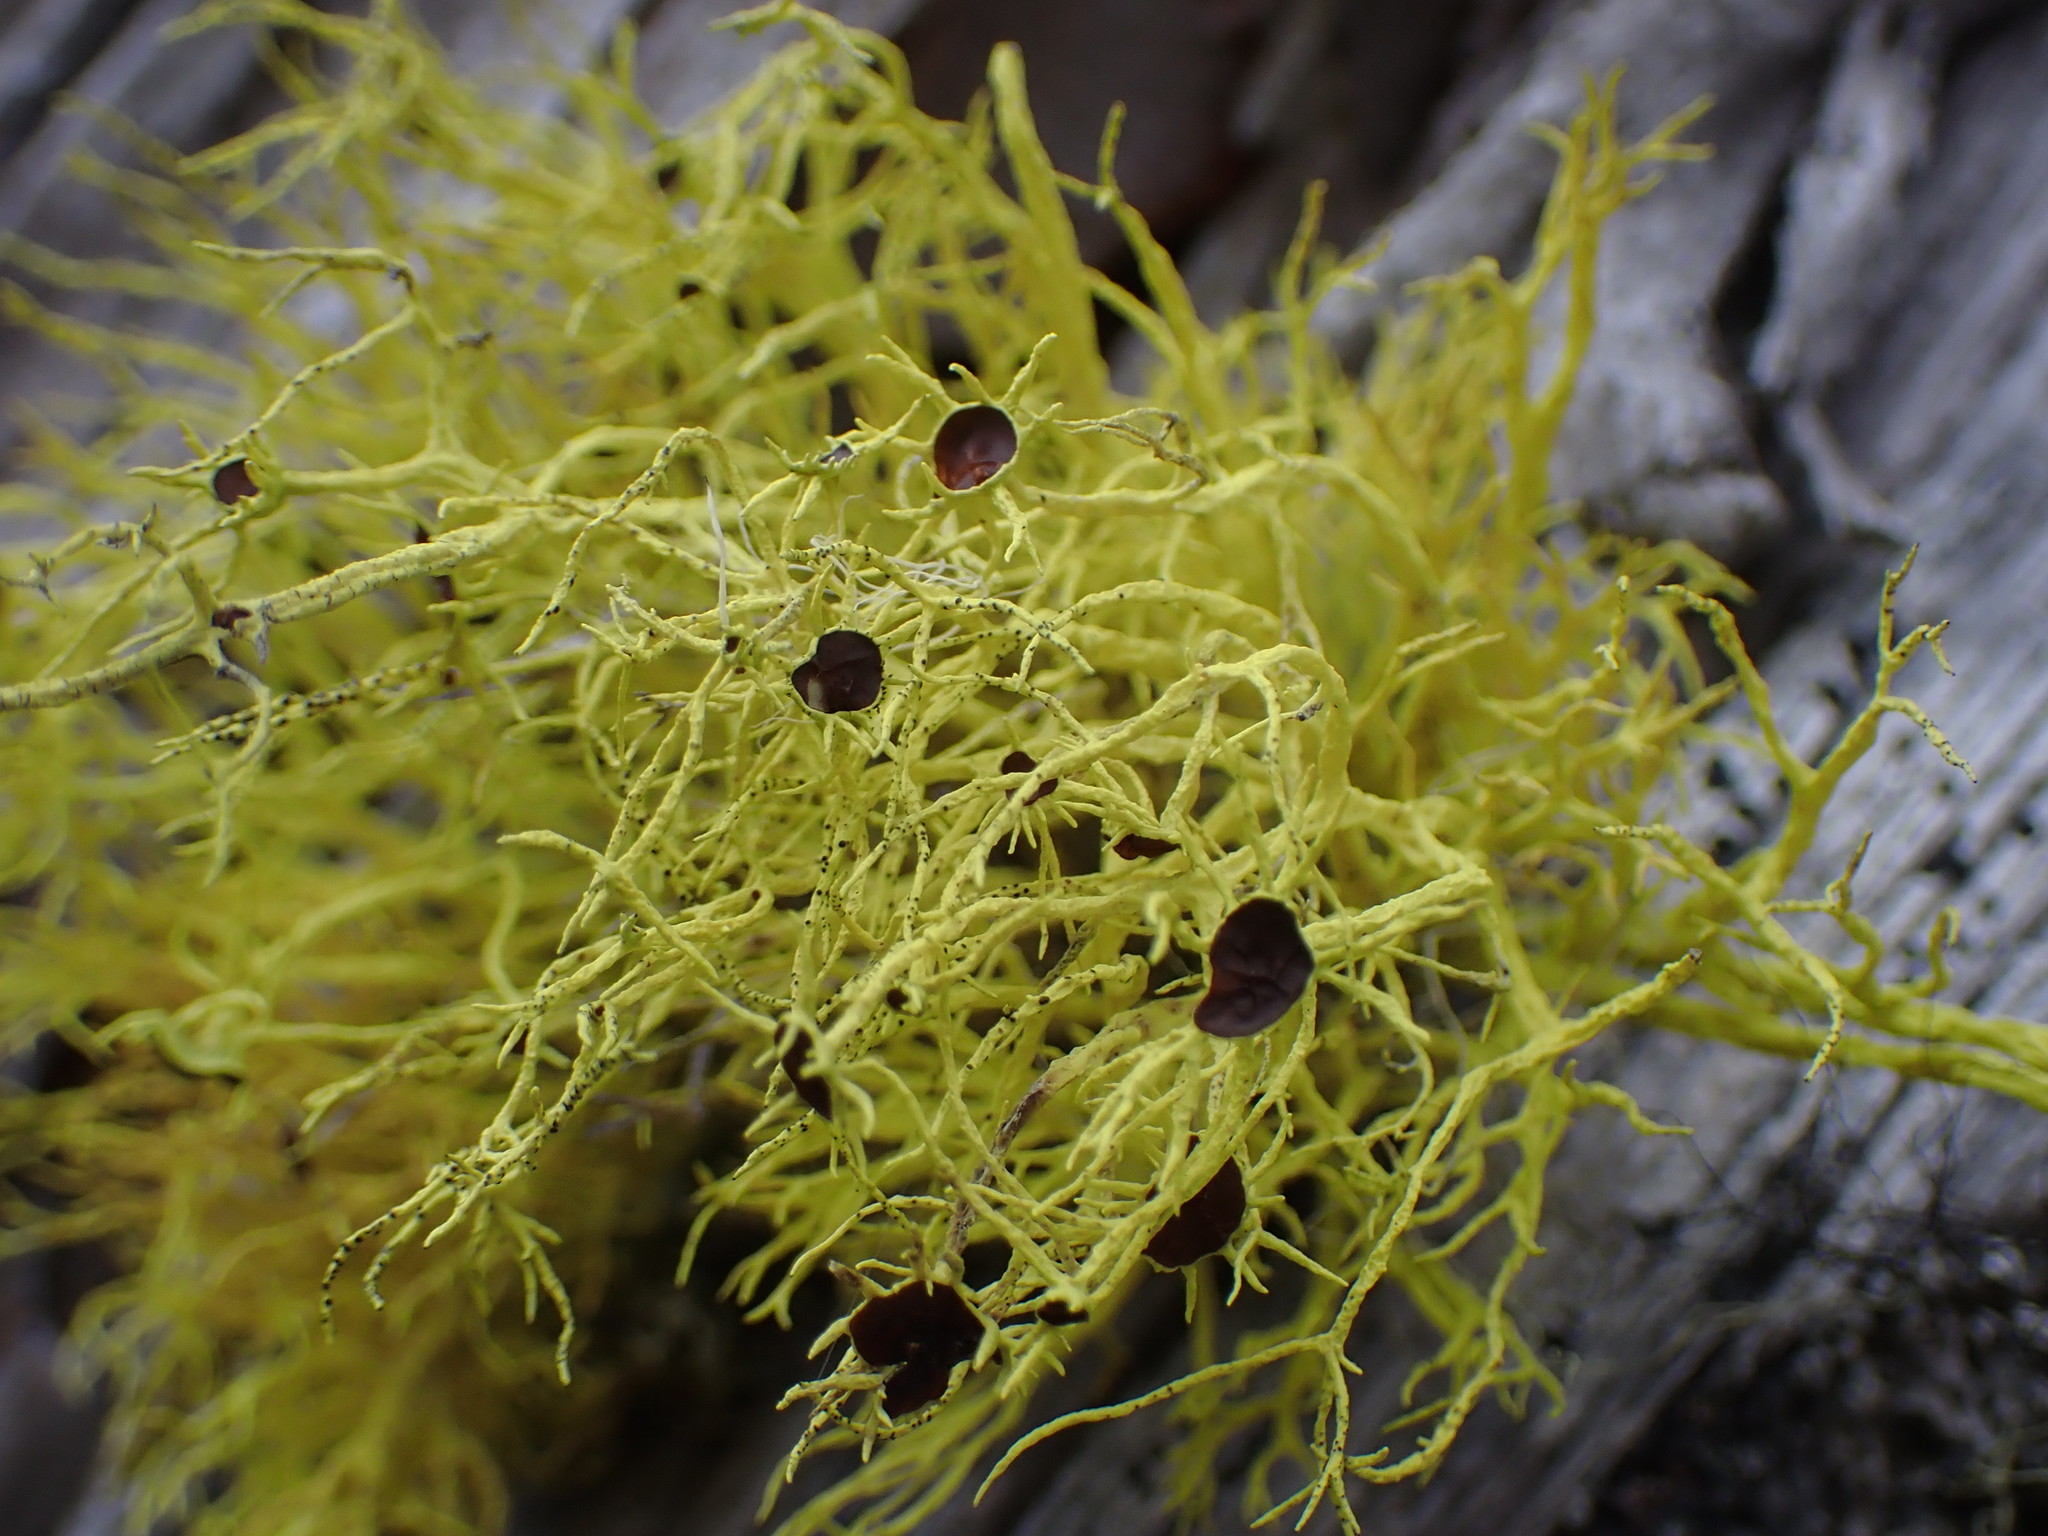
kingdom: Fungi
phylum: Ascomycota
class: Lecanoromycetes
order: Lecanorales
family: Parmeliaceae
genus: Letharia
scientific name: Letharia columbiana
